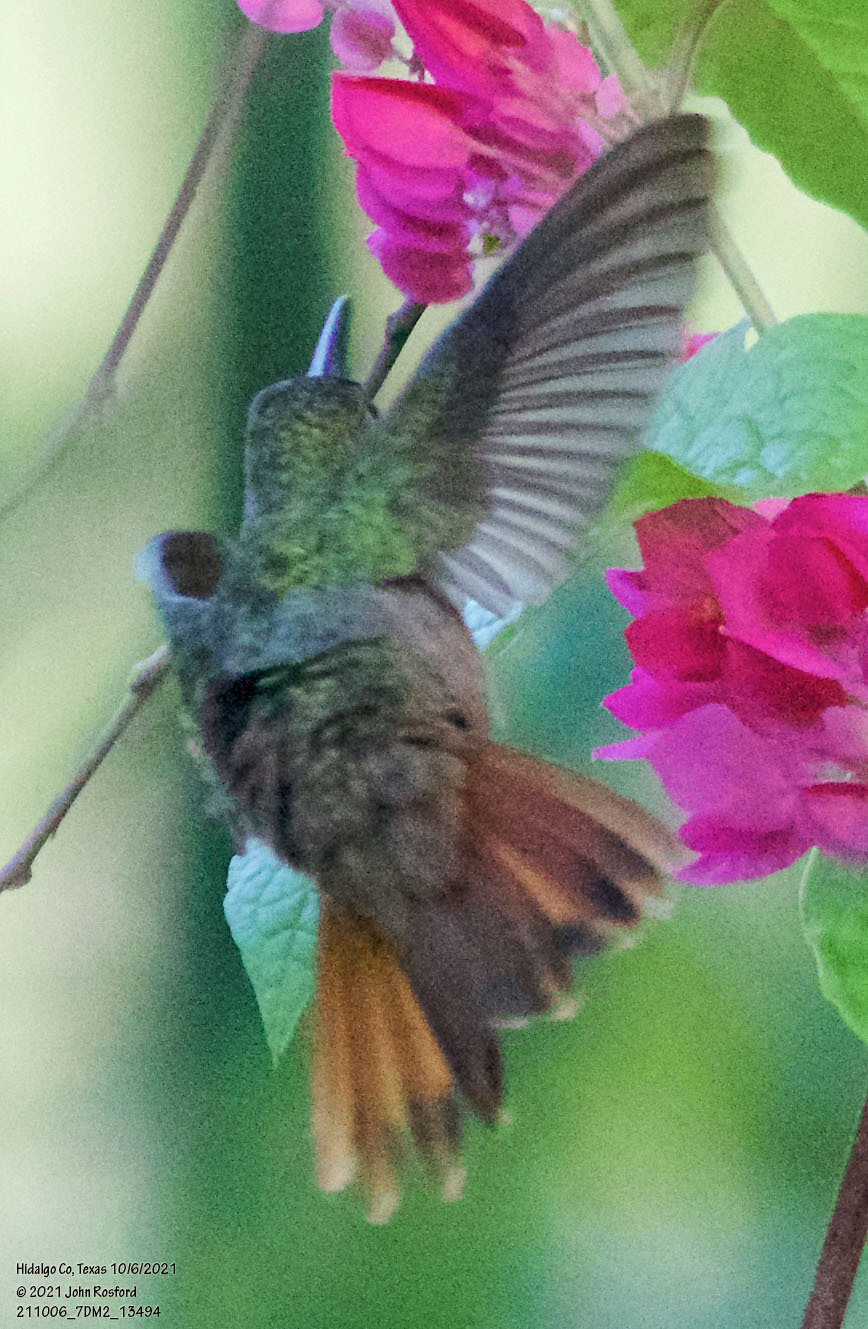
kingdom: Animalia
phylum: Chordata
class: Aves
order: Apodiformes
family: Trochilidae
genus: Amazilia
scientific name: Amazilia yucatanensis
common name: Buff-bellied hummingbird
